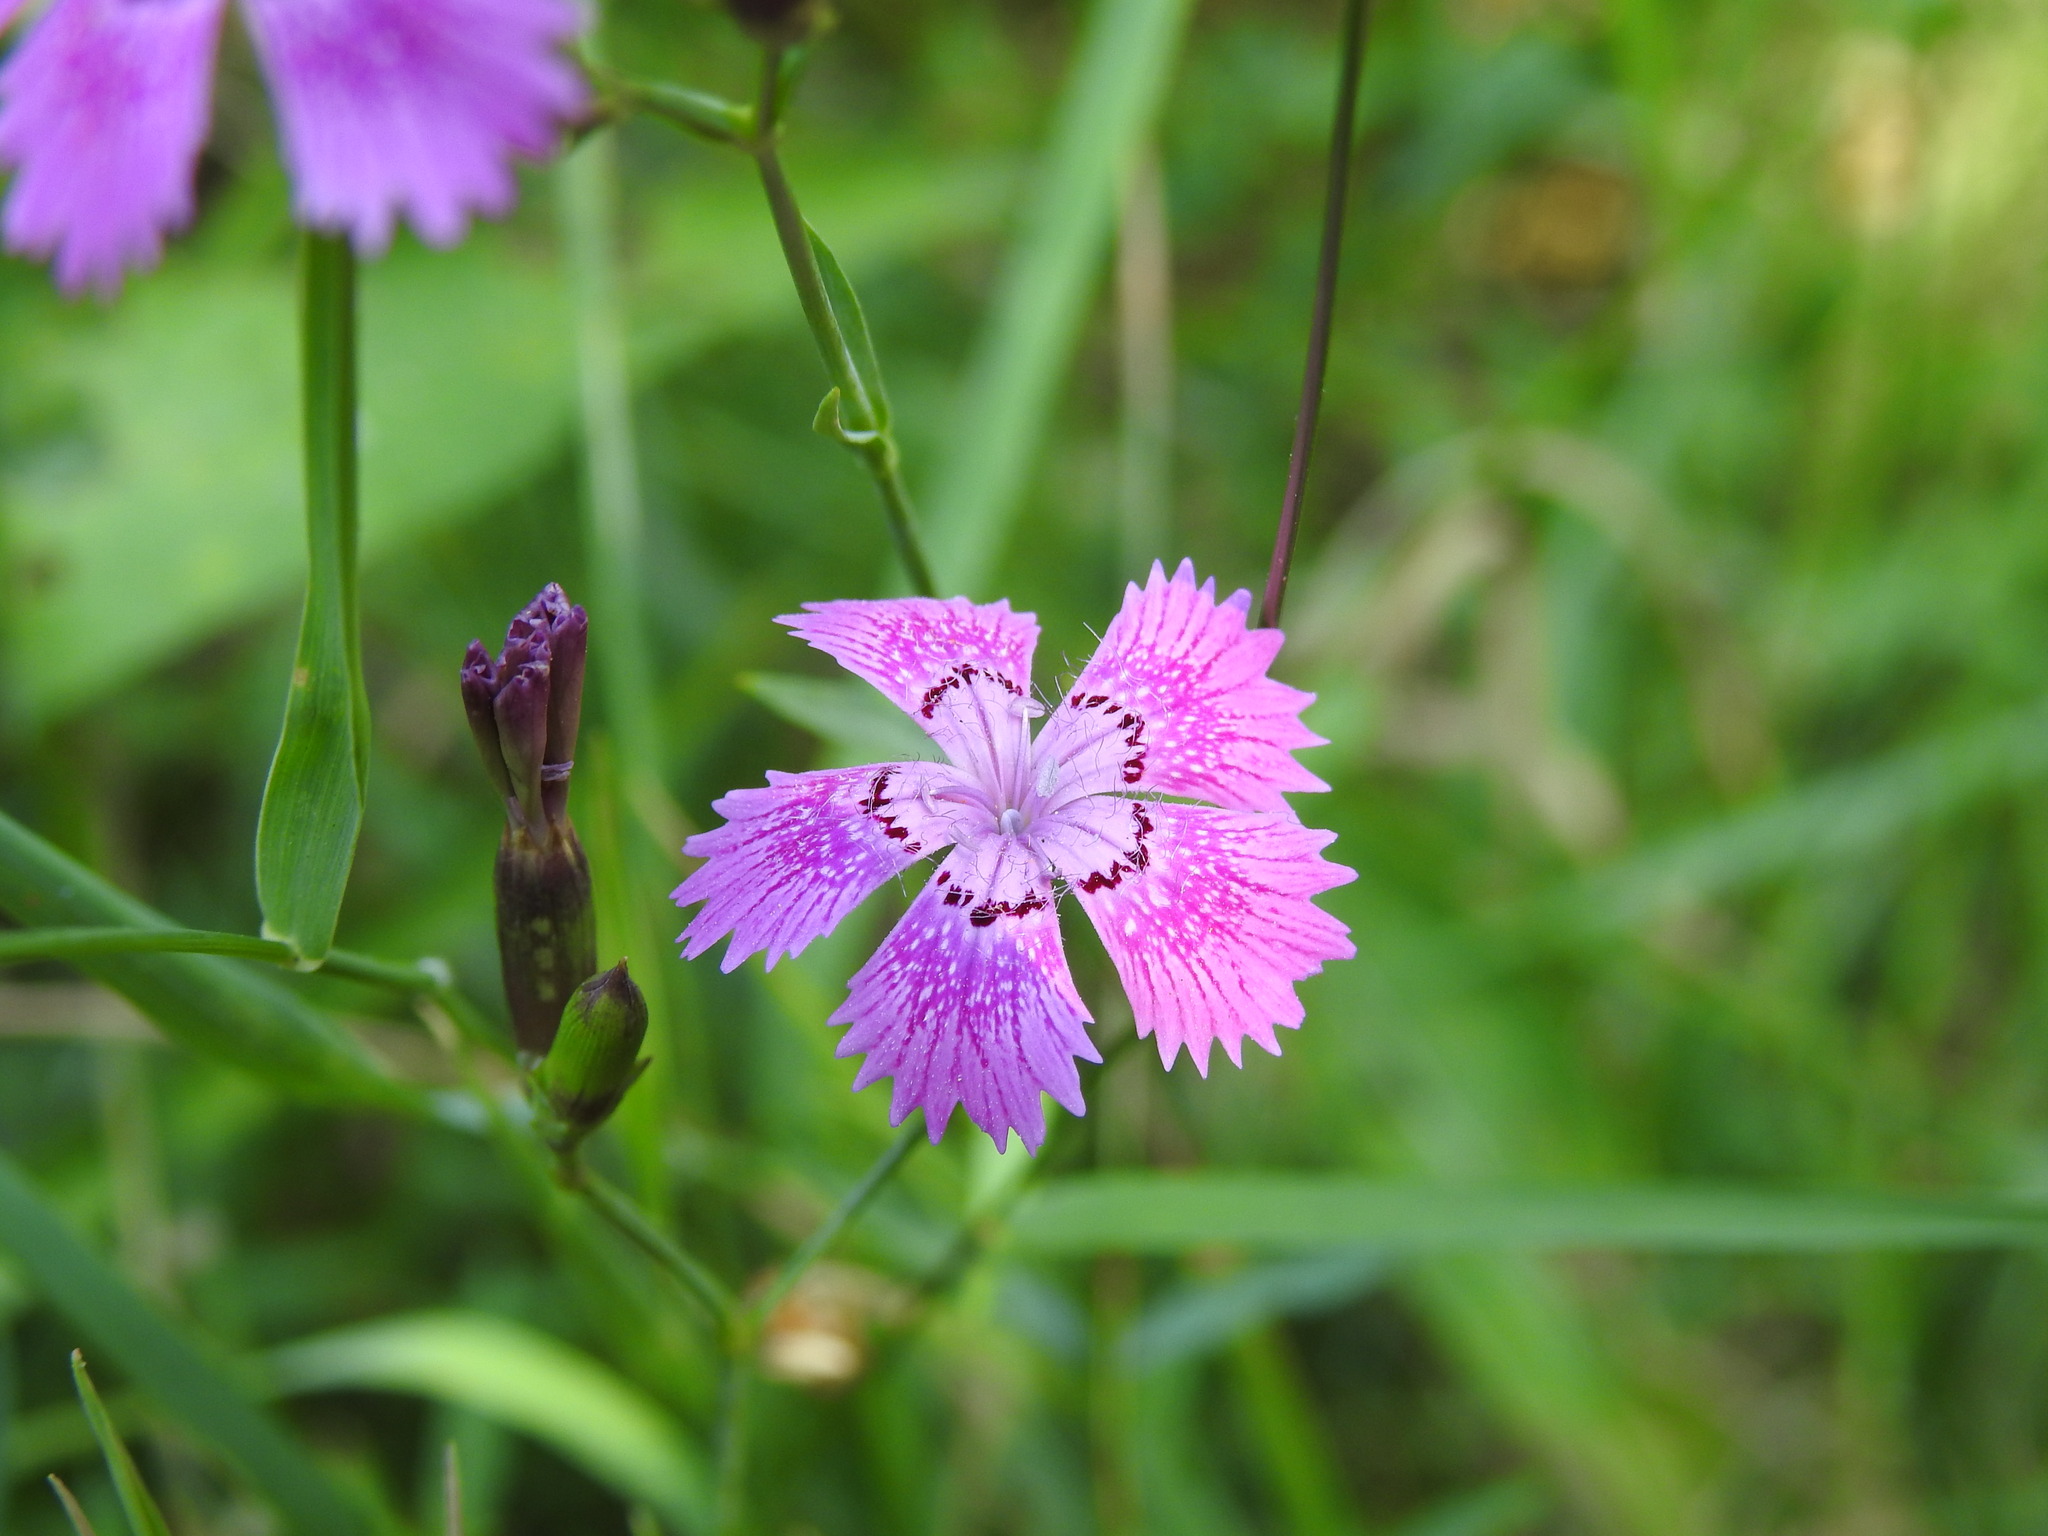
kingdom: Plantae
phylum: Tracheophyta
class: Magnoliopsida
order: Caryophyllales
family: Caryophyllaceae
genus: Dianthus
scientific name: Dianthus seguieri
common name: Ragged pink
